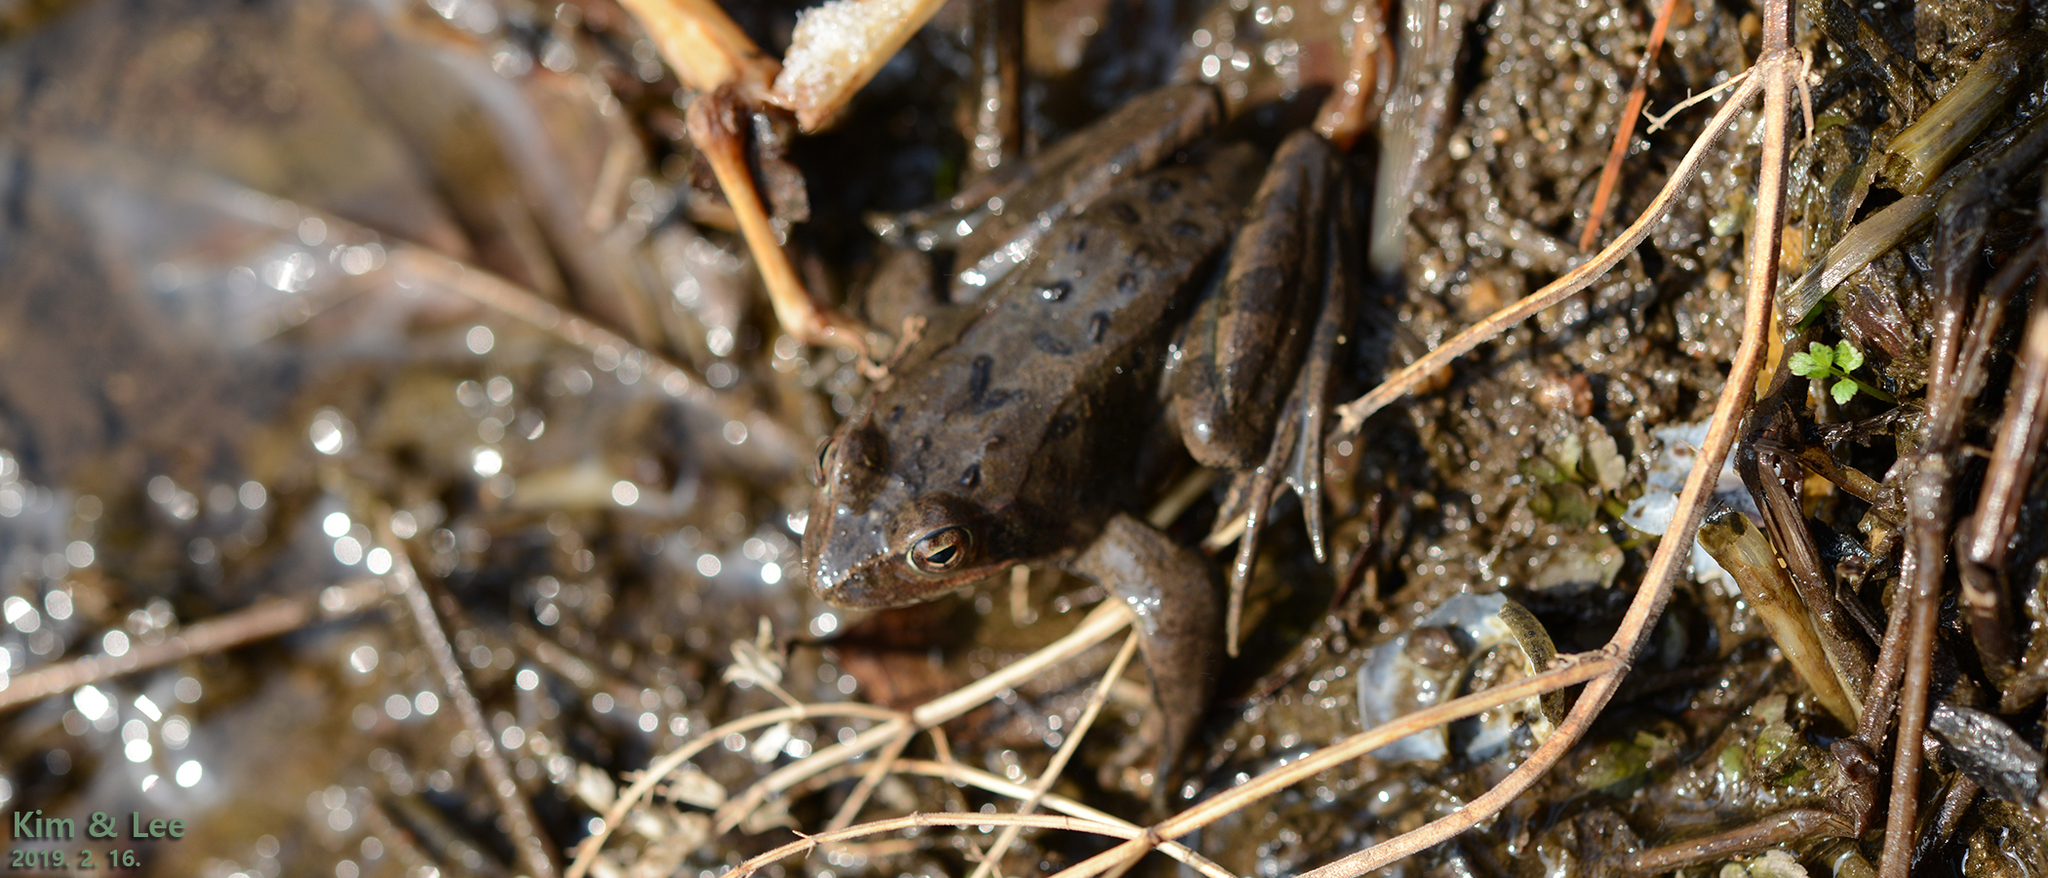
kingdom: Animalia
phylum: Chordata
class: Amphibia
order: Anura
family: Ranidae
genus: Rana
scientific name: Rana dybowskii
